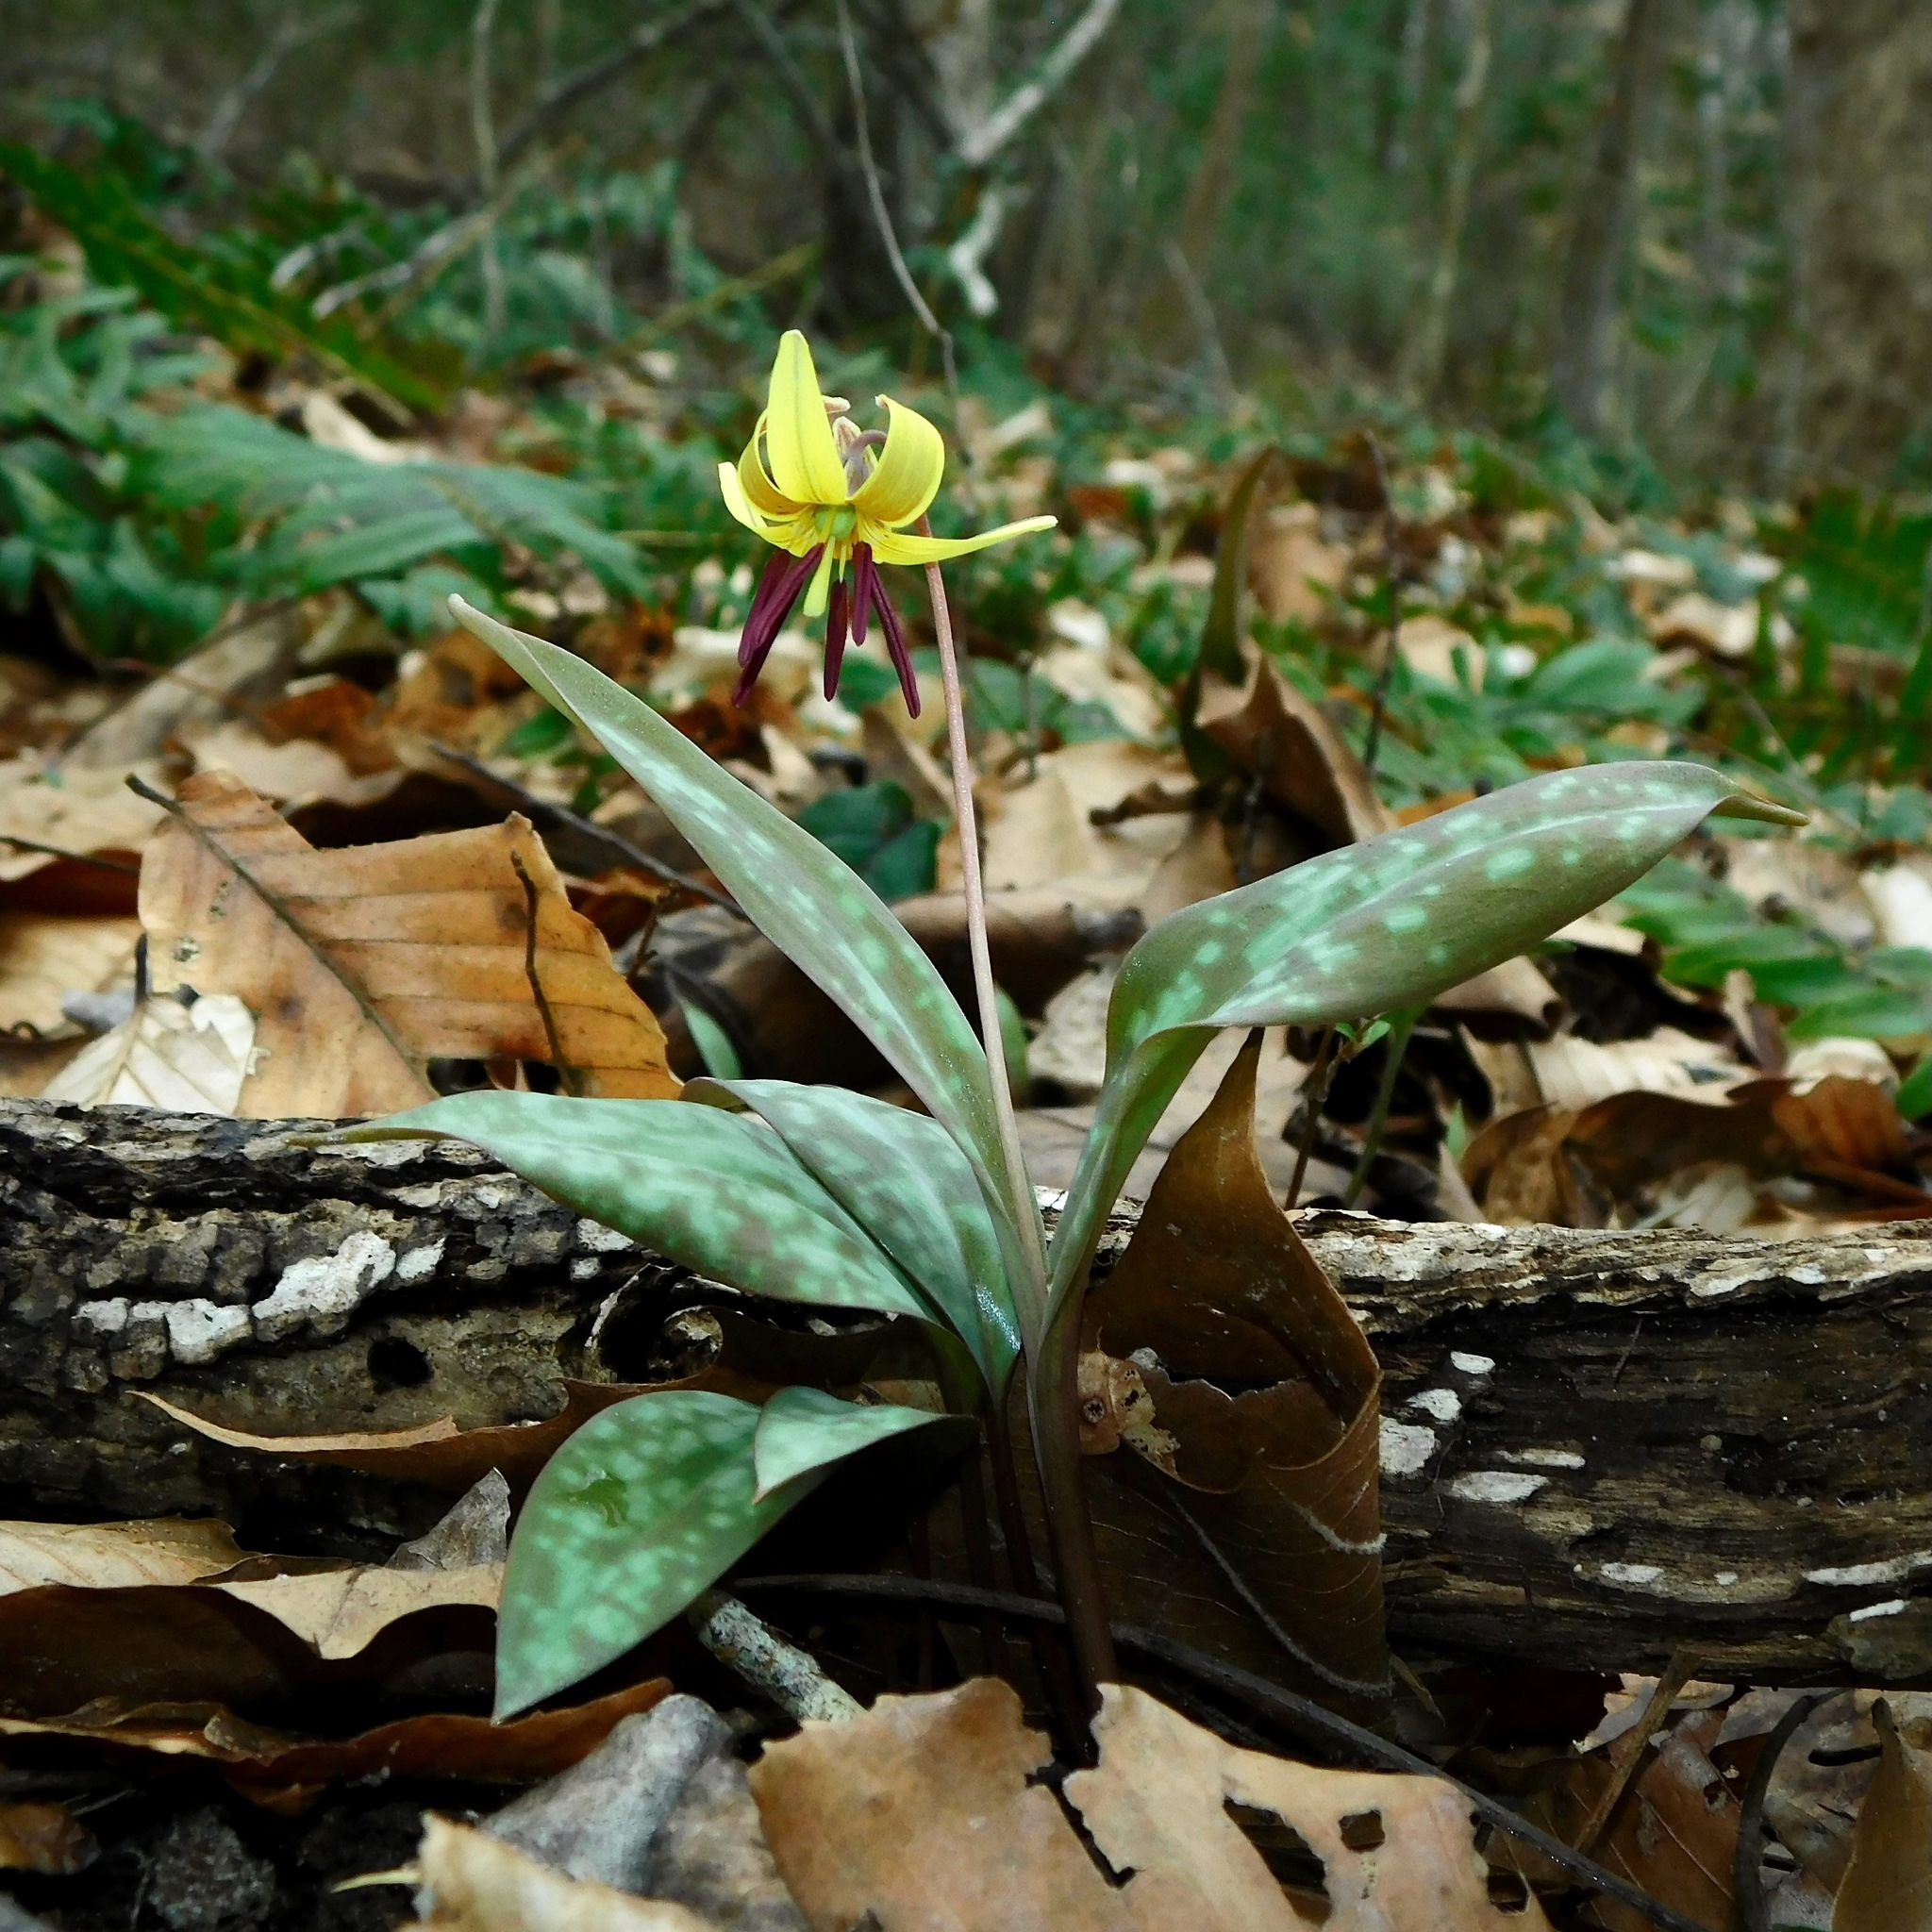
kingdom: Plantae
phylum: Tracheophyta
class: Liliopsida
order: Liliales
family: Liliaceae
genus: Erythronium
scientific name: Erythronium umbilicatum
